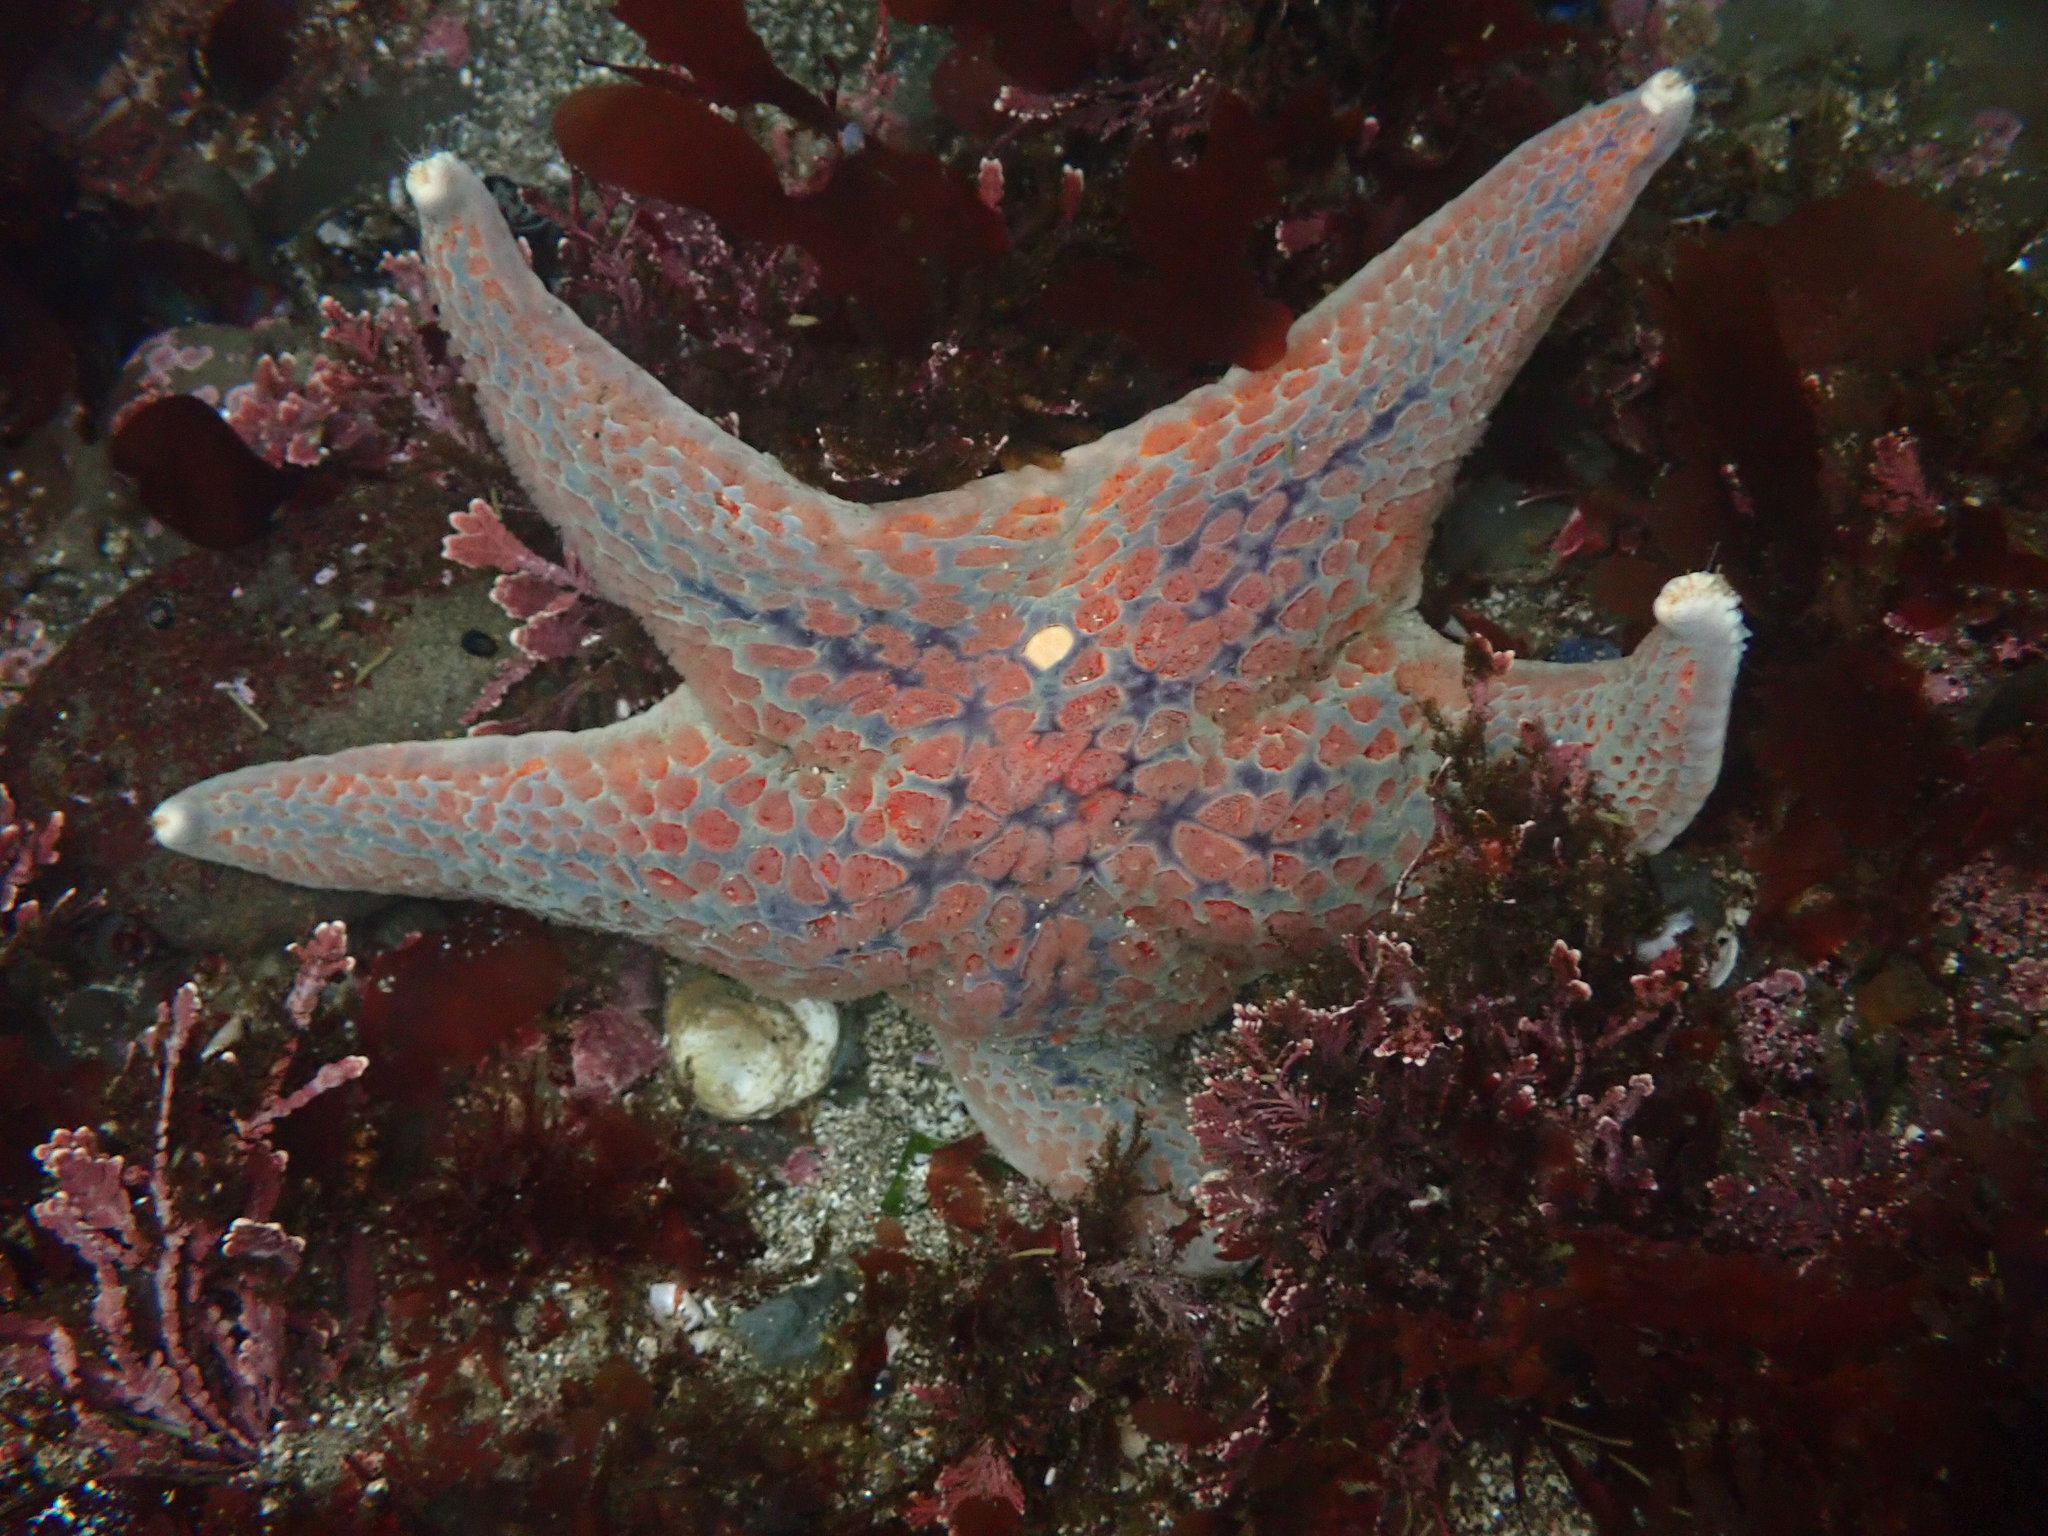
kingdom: Animalia
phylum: Echinodermata
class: Asteroidea
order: Valvatida
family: Asteropseidae
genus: Dermasterias
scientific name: Dermasterias imbricata
